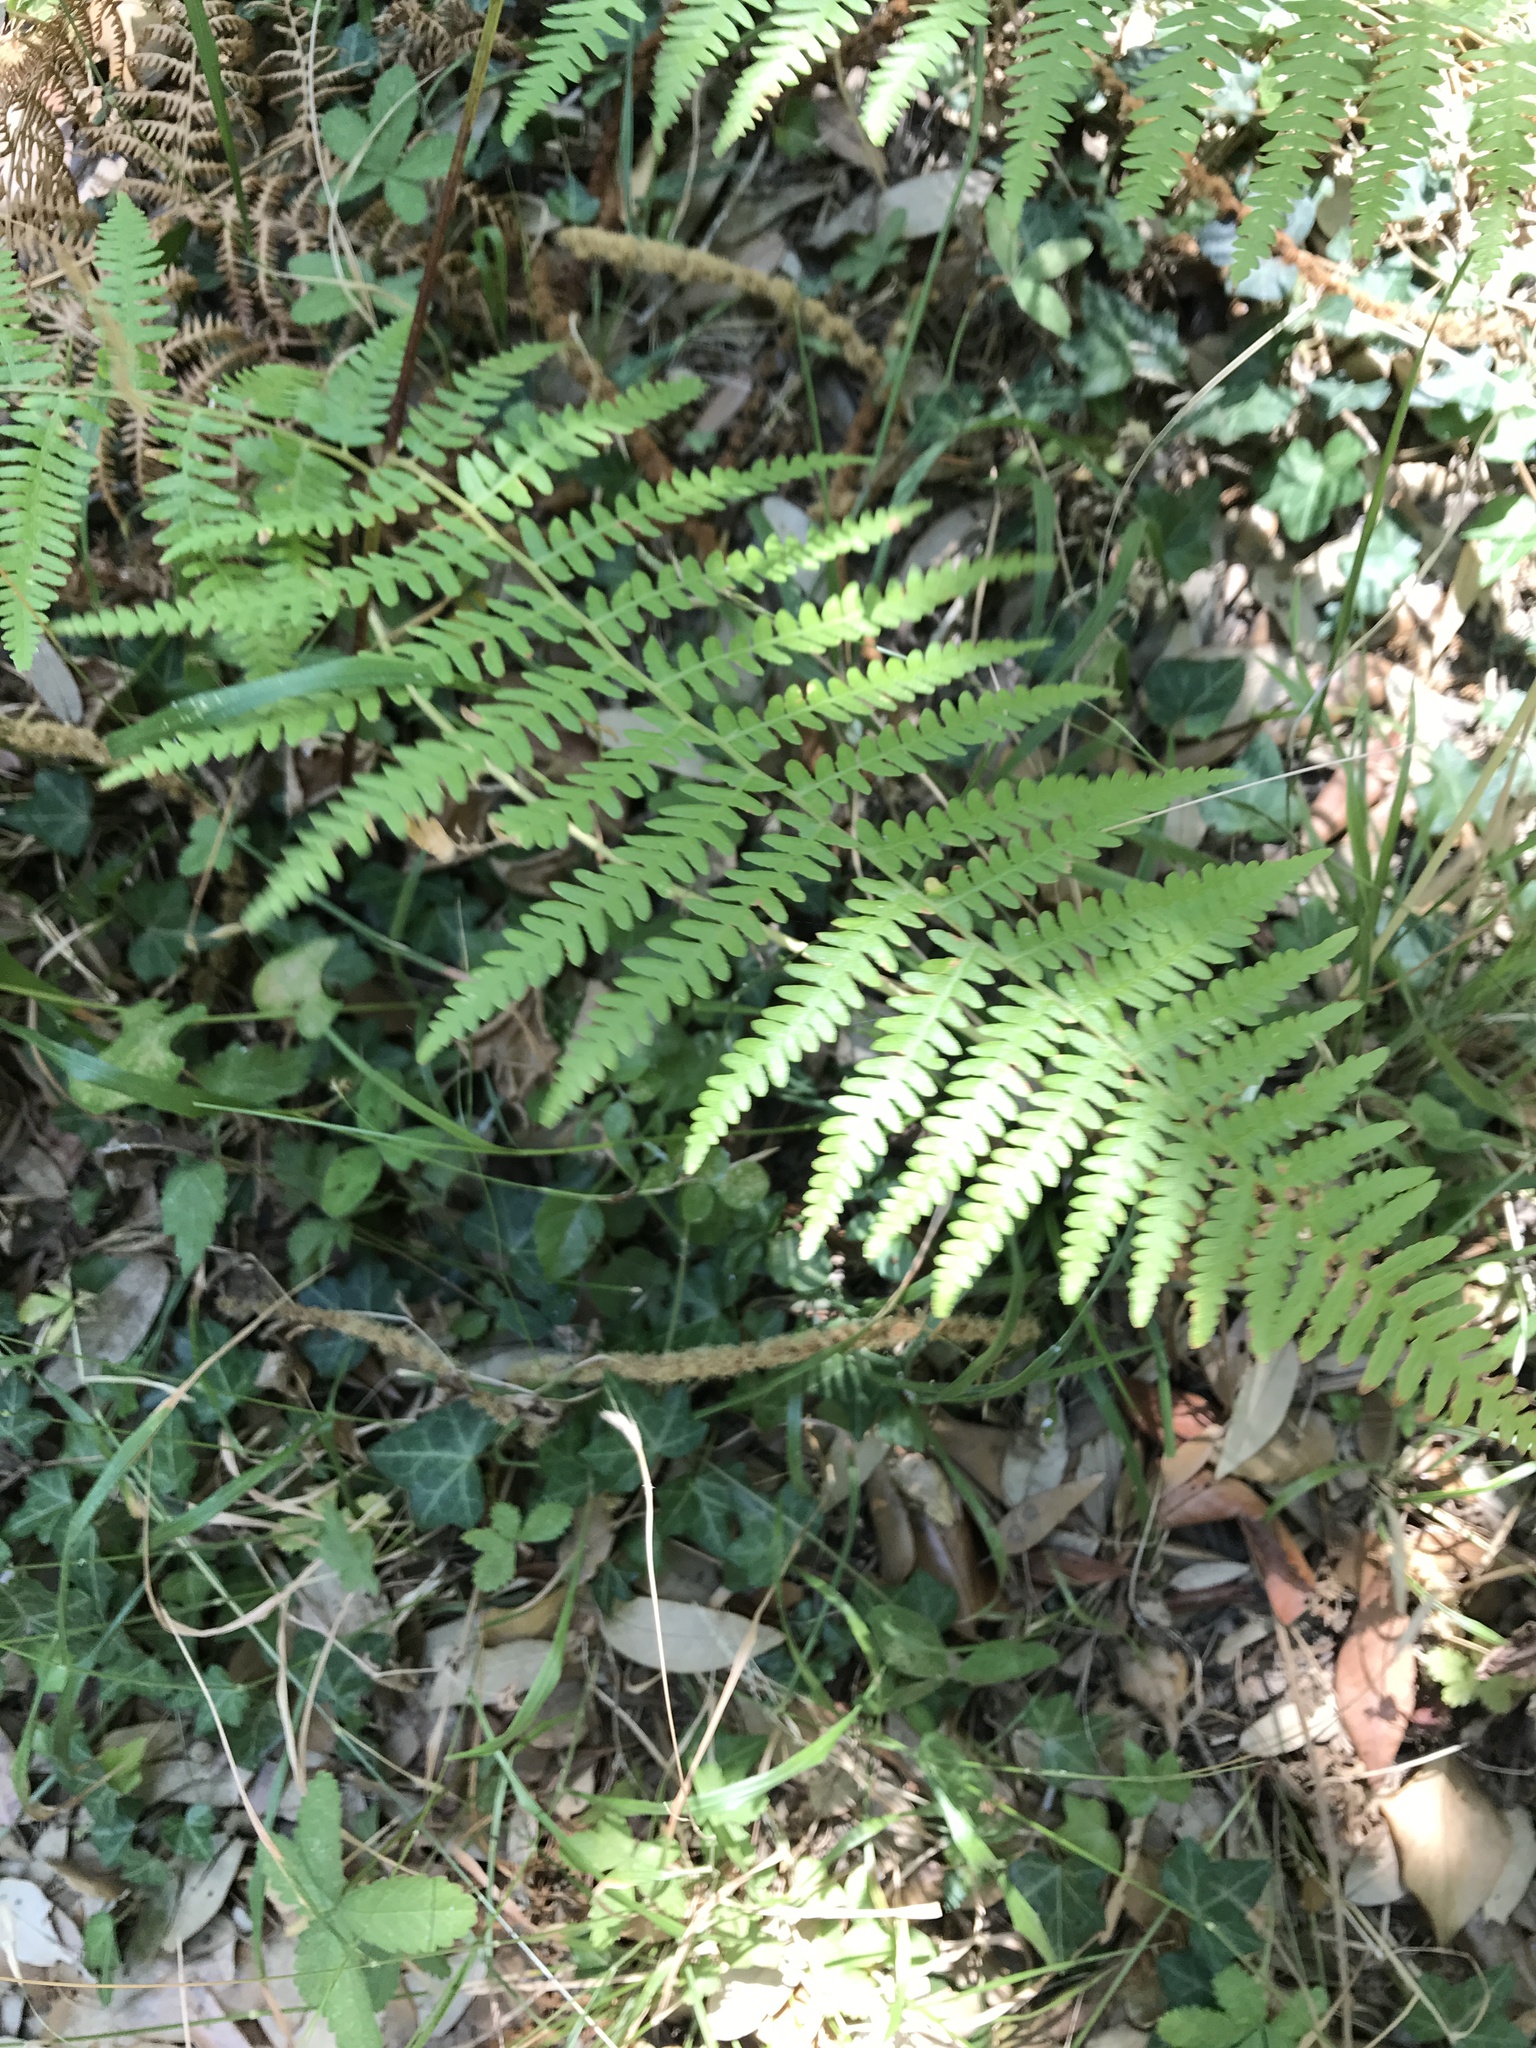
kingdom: Plantae
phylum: Tracheophyta
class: Polypodiopsida
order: Polypodiales
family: Dennstaedtiaceae
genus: Pteridium
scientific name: Pteridium aquilinum
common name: Bracken
